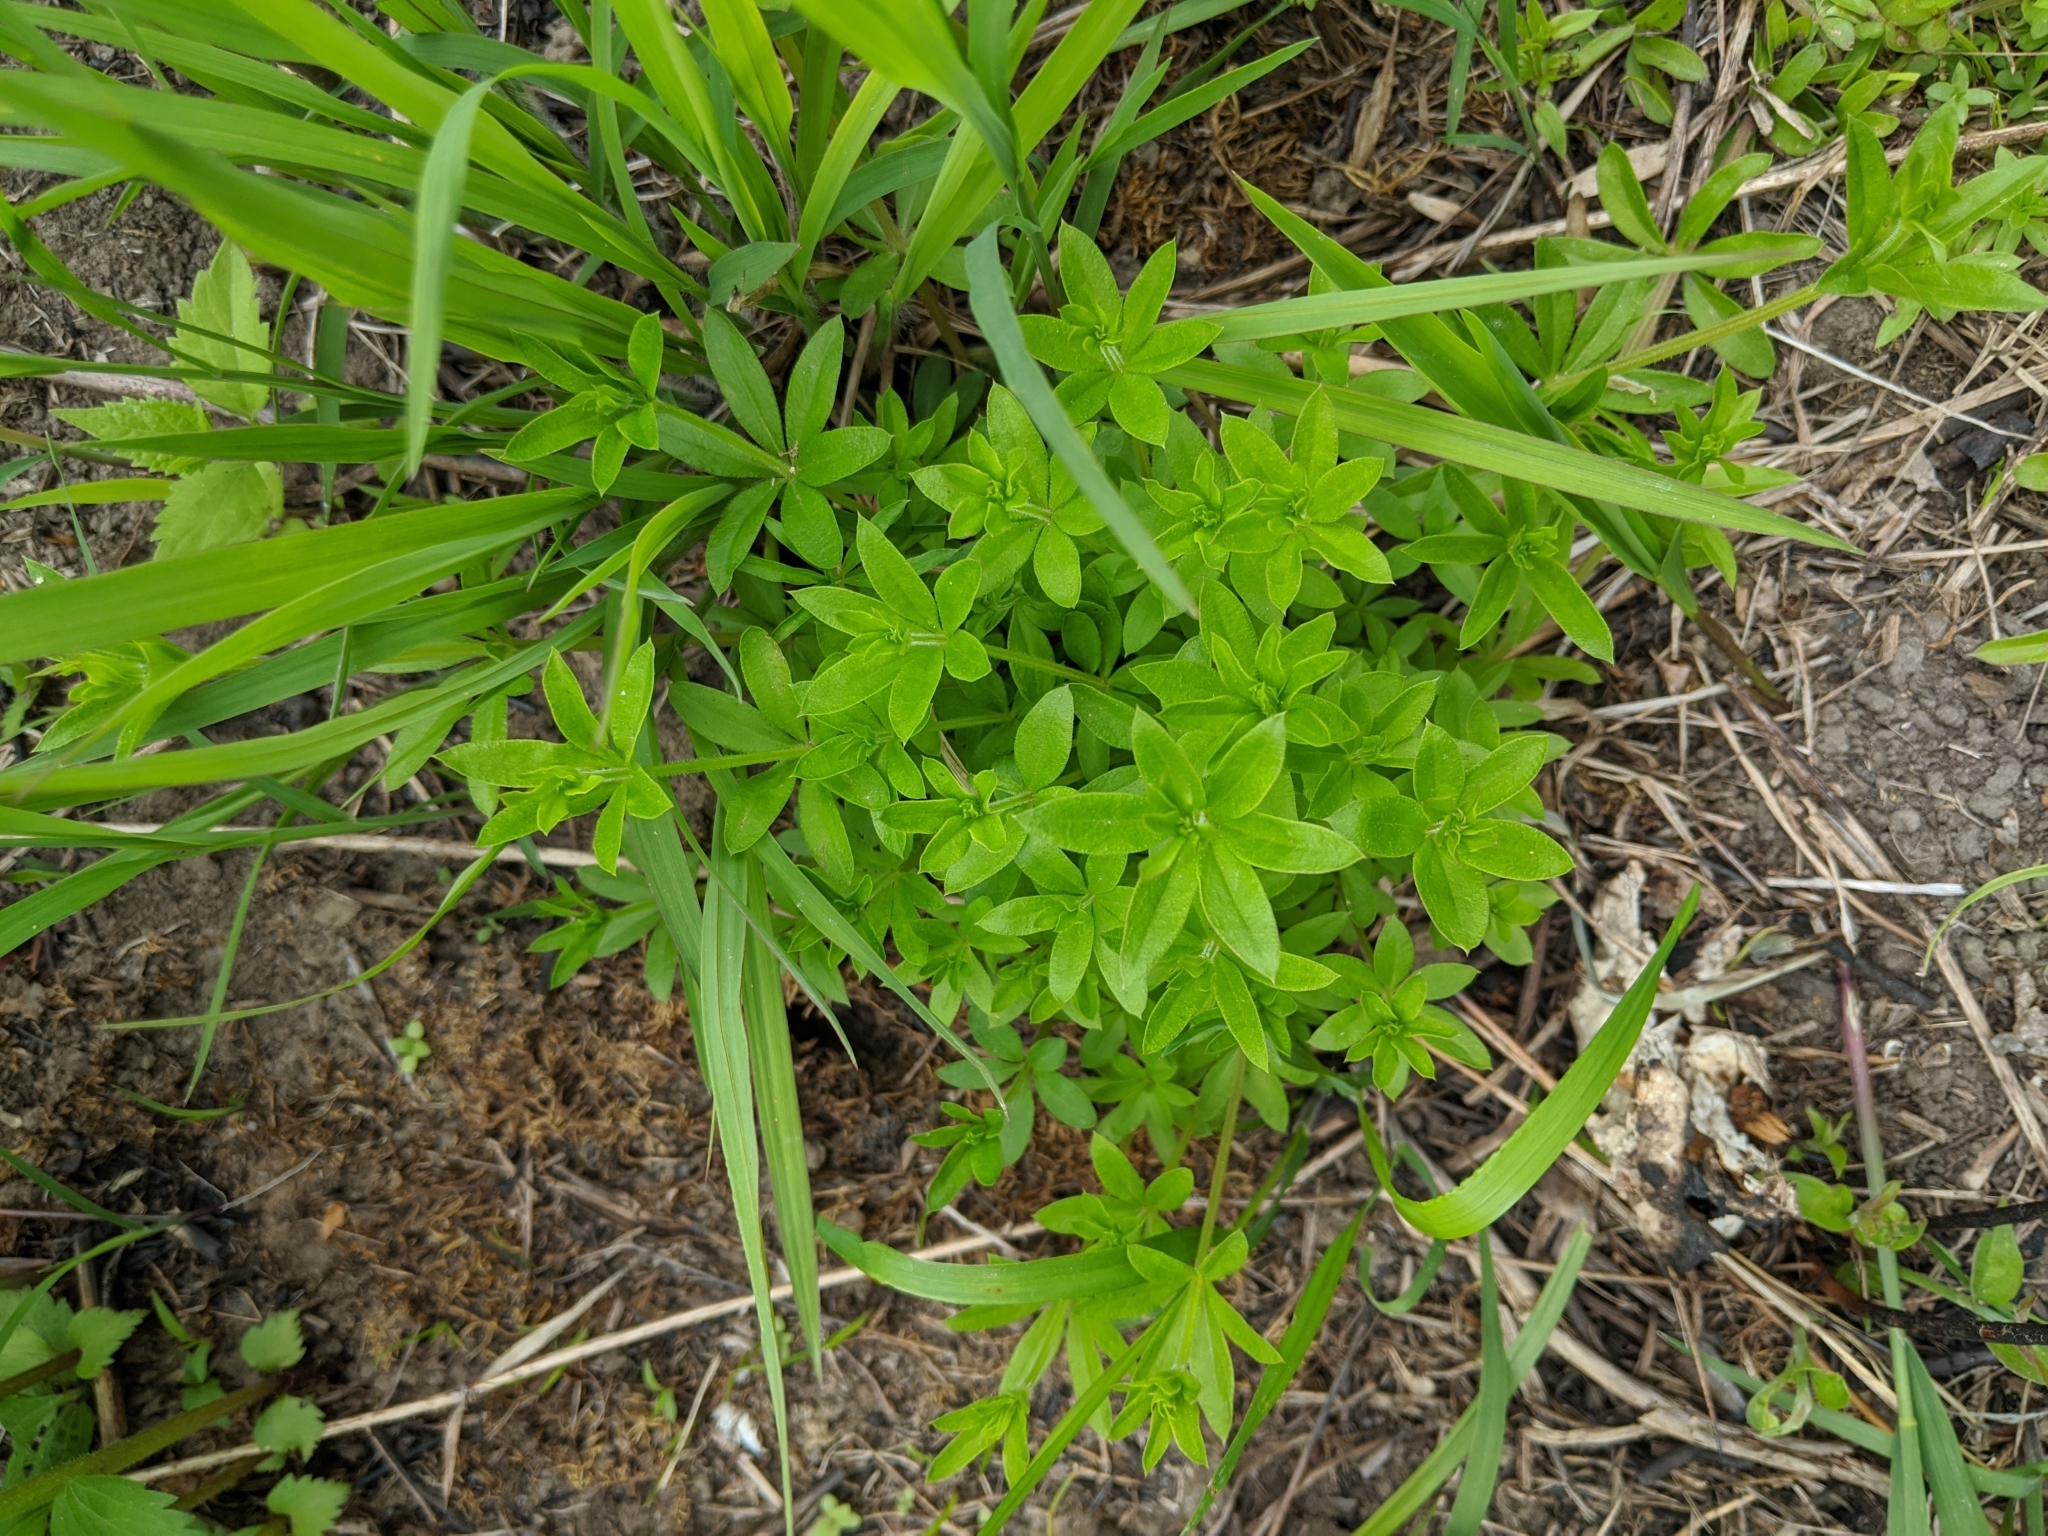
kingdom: Plantae
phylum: Tracheophyta
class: Magnoliopsida
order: Gentianales
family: Rubiaceae
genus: Galium
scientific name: Galium triflorum
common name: Fragrant bedstraw
